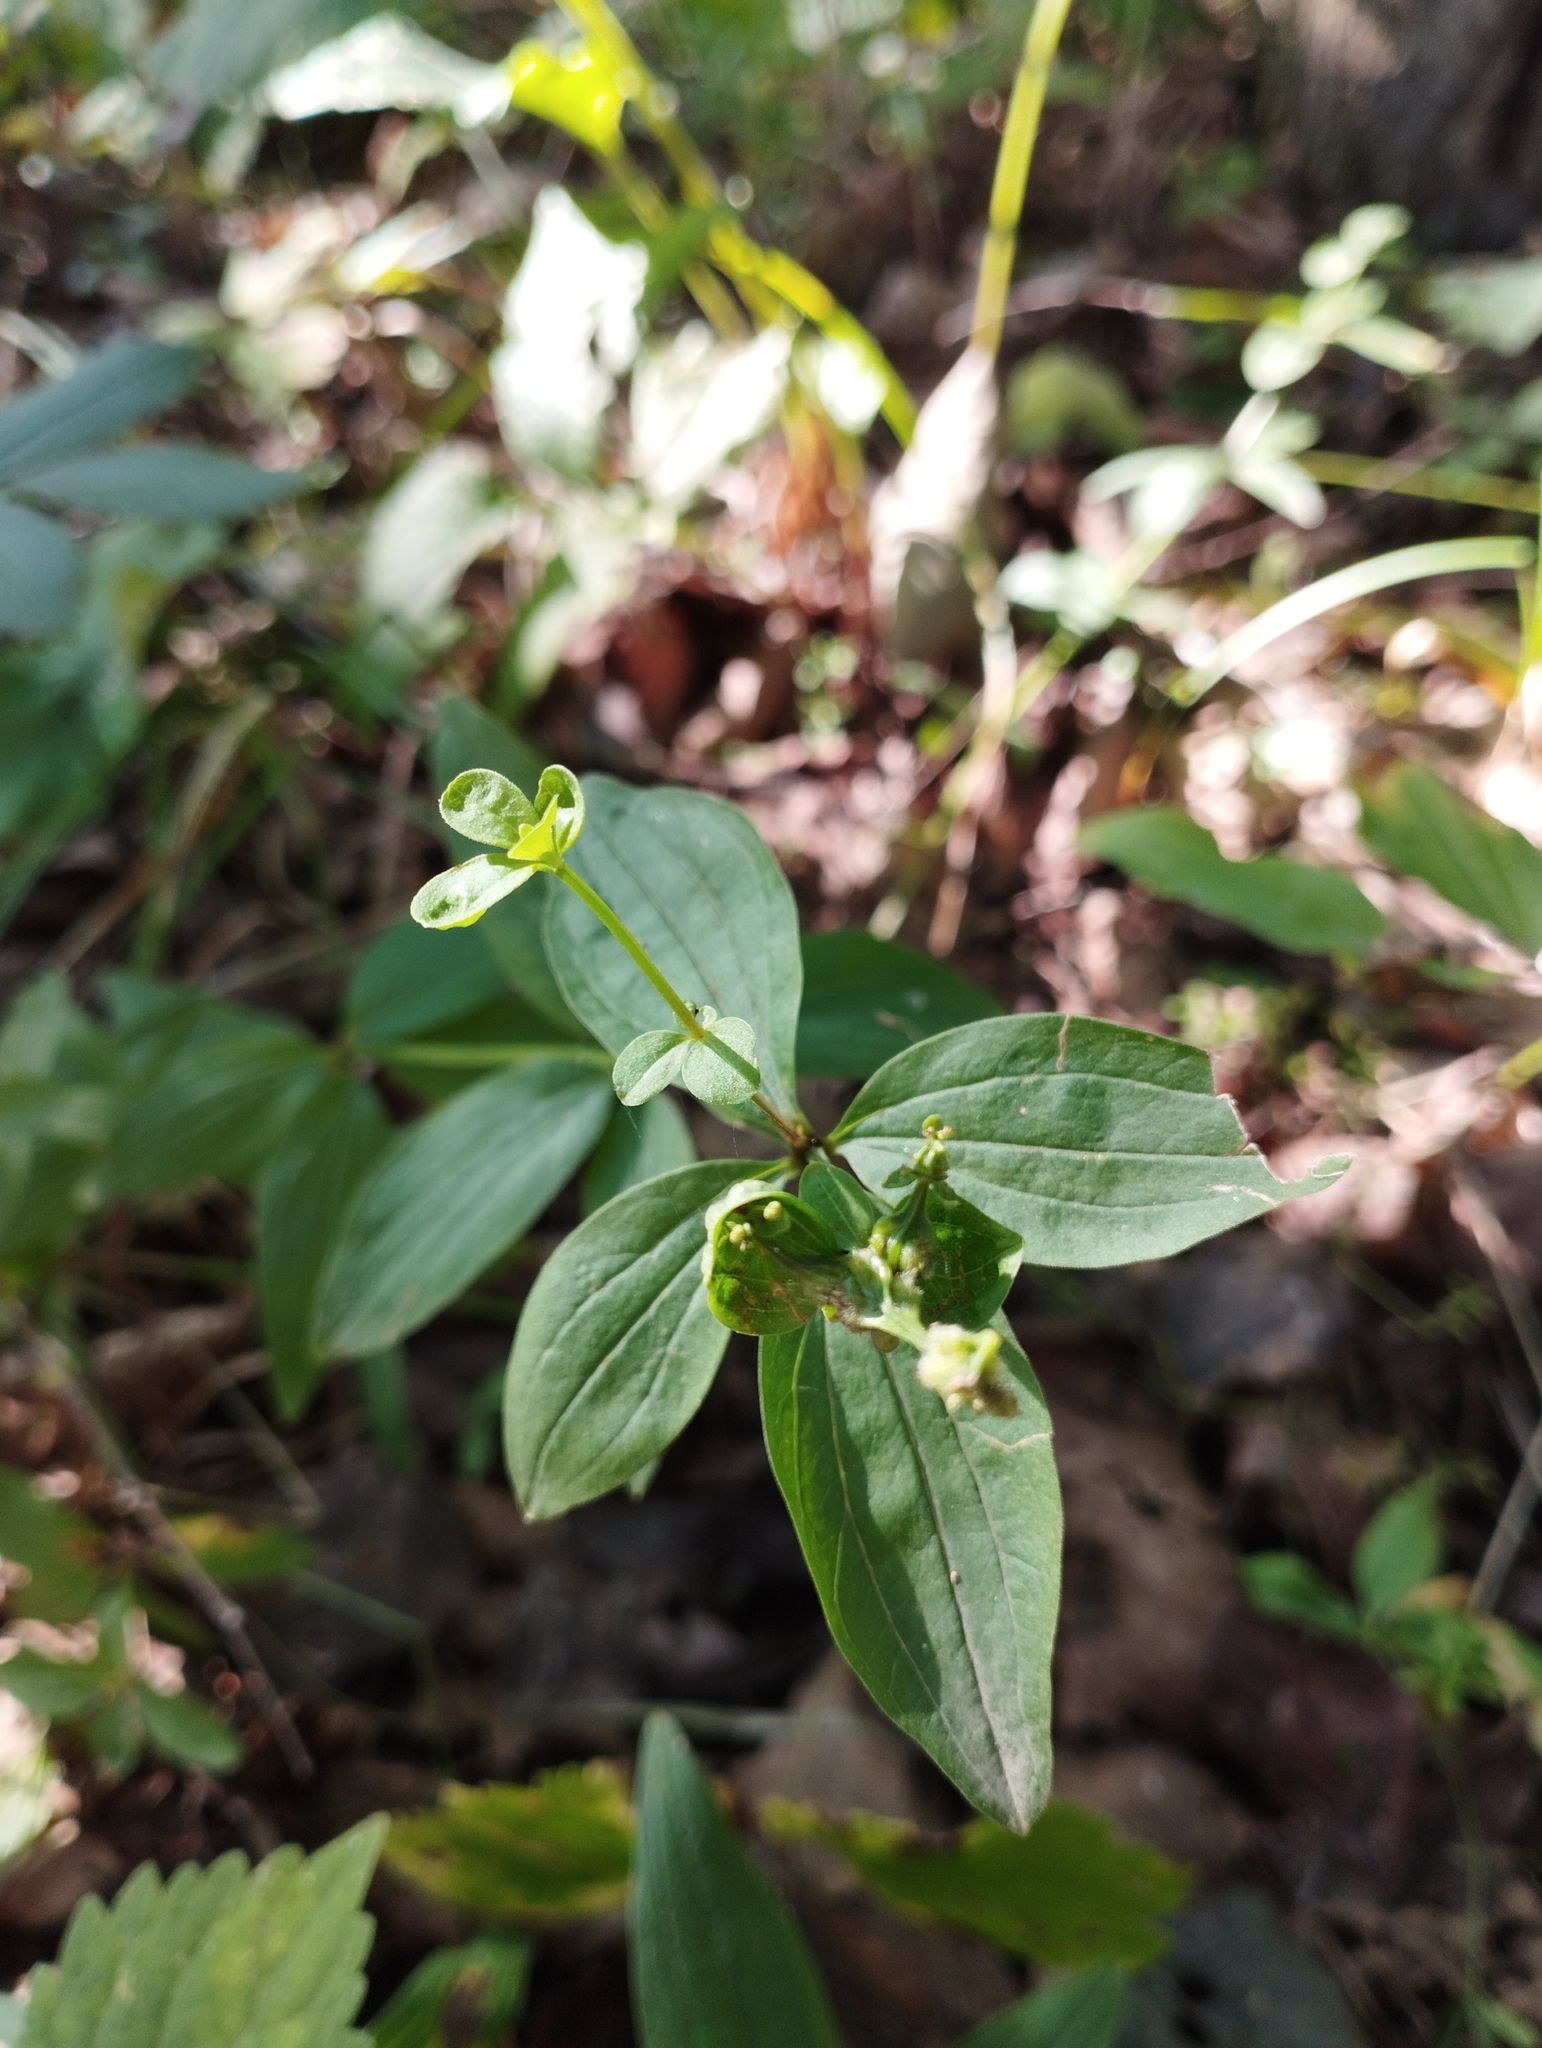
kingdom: Plantae
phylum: Tracheophyta
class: Magnoliopsida
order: Gentianales
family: Rubiaceae
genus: Galium
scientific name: Galium maximowiczii
